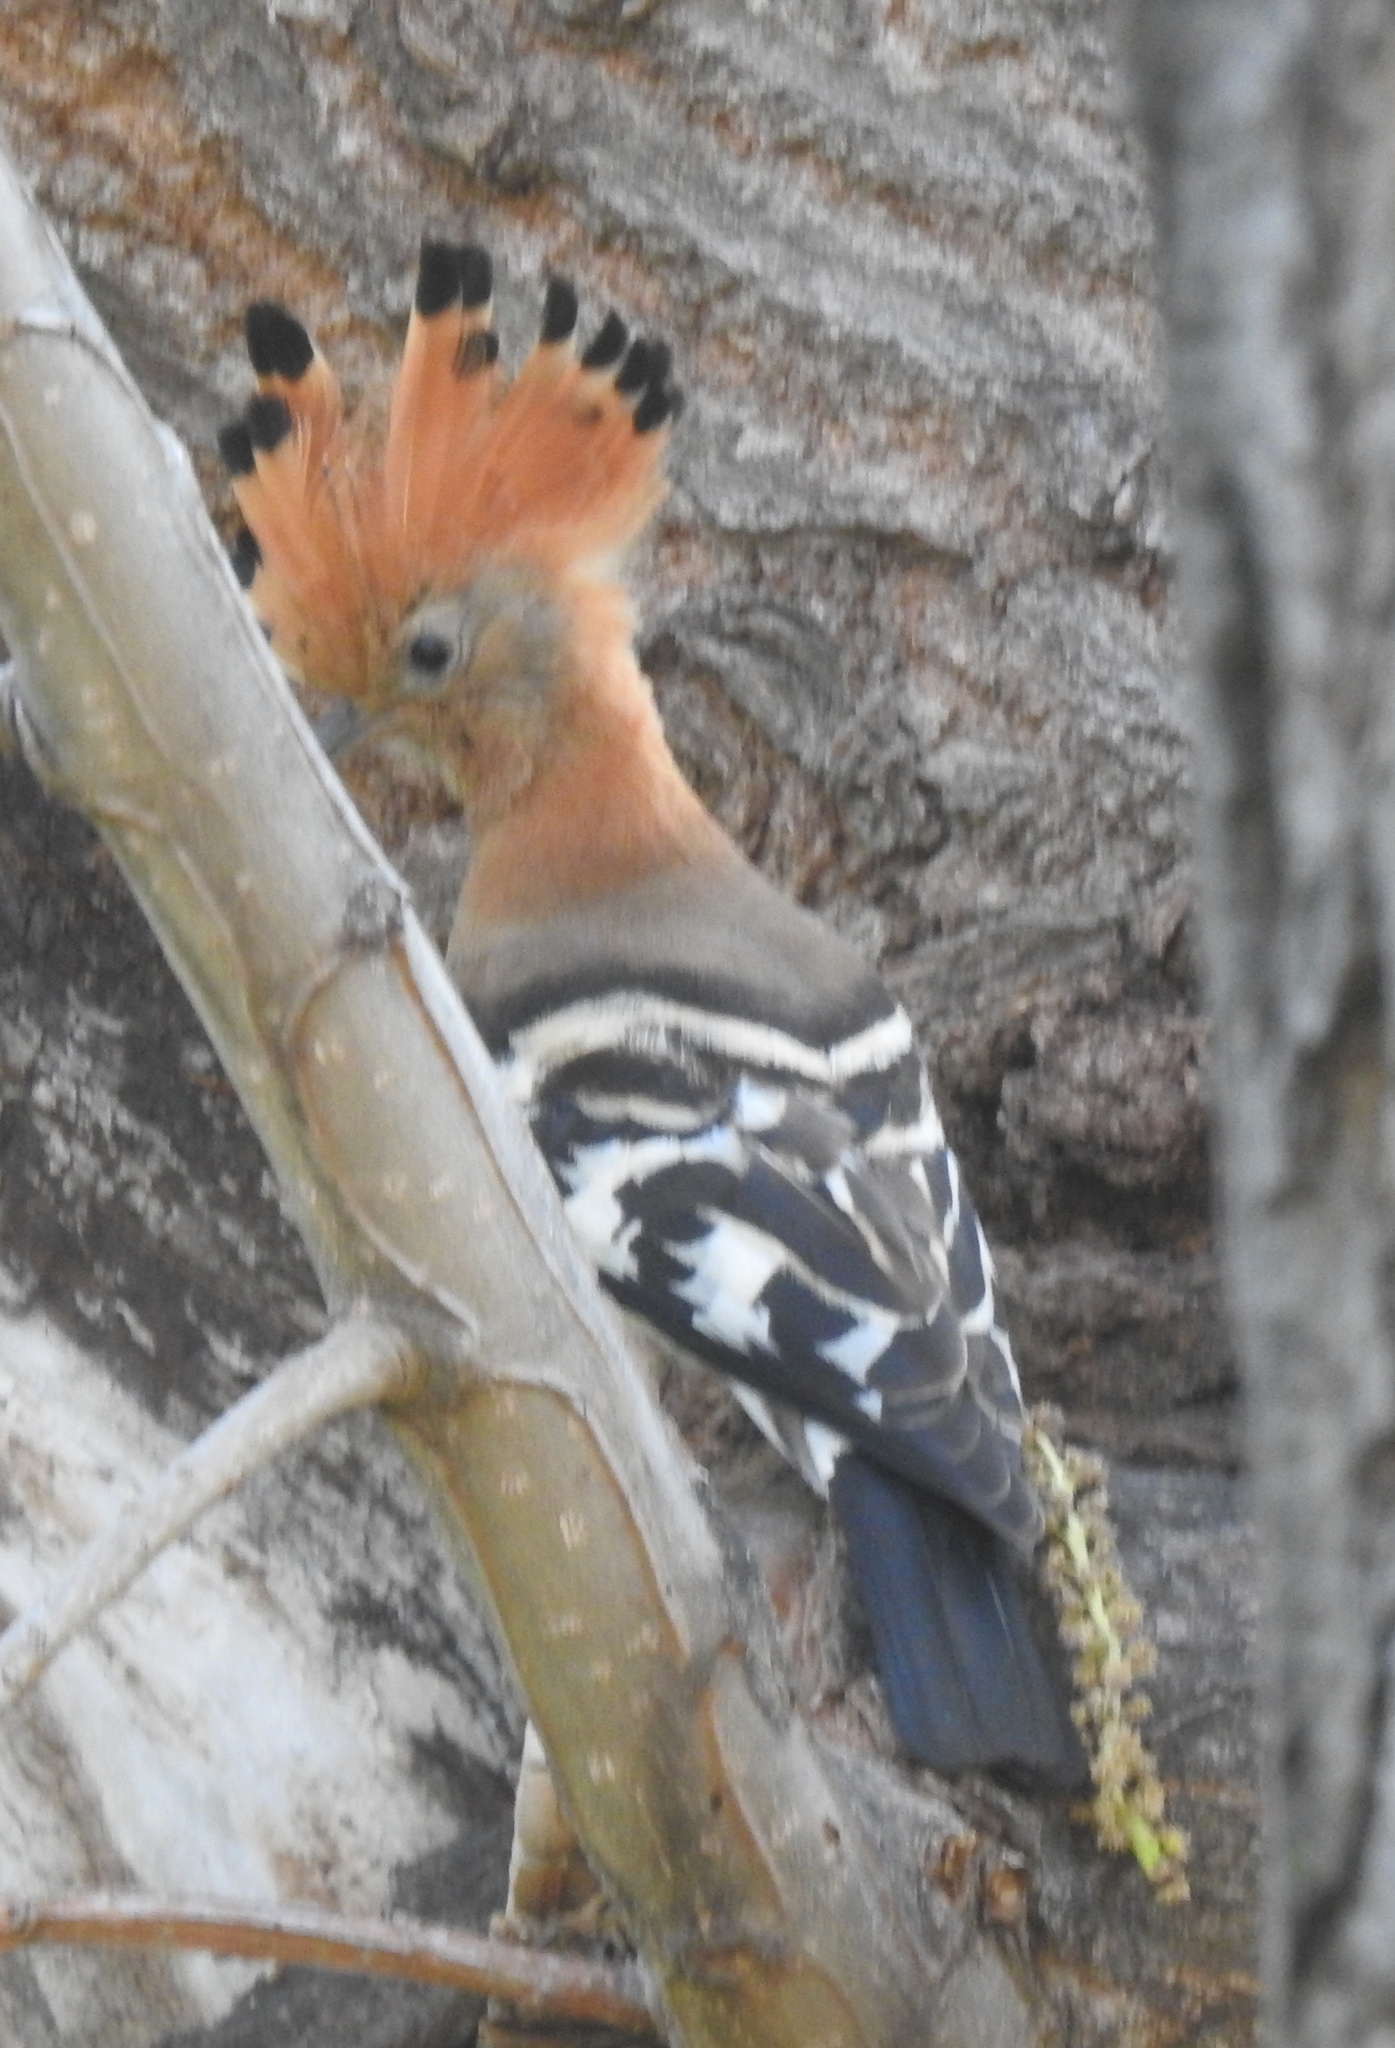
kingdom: Animalia
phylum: Chordata
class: Aves
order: Bucerotiformes
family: Upupidae
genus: Upupa
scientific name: Upupa africana
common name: African hoopoe
